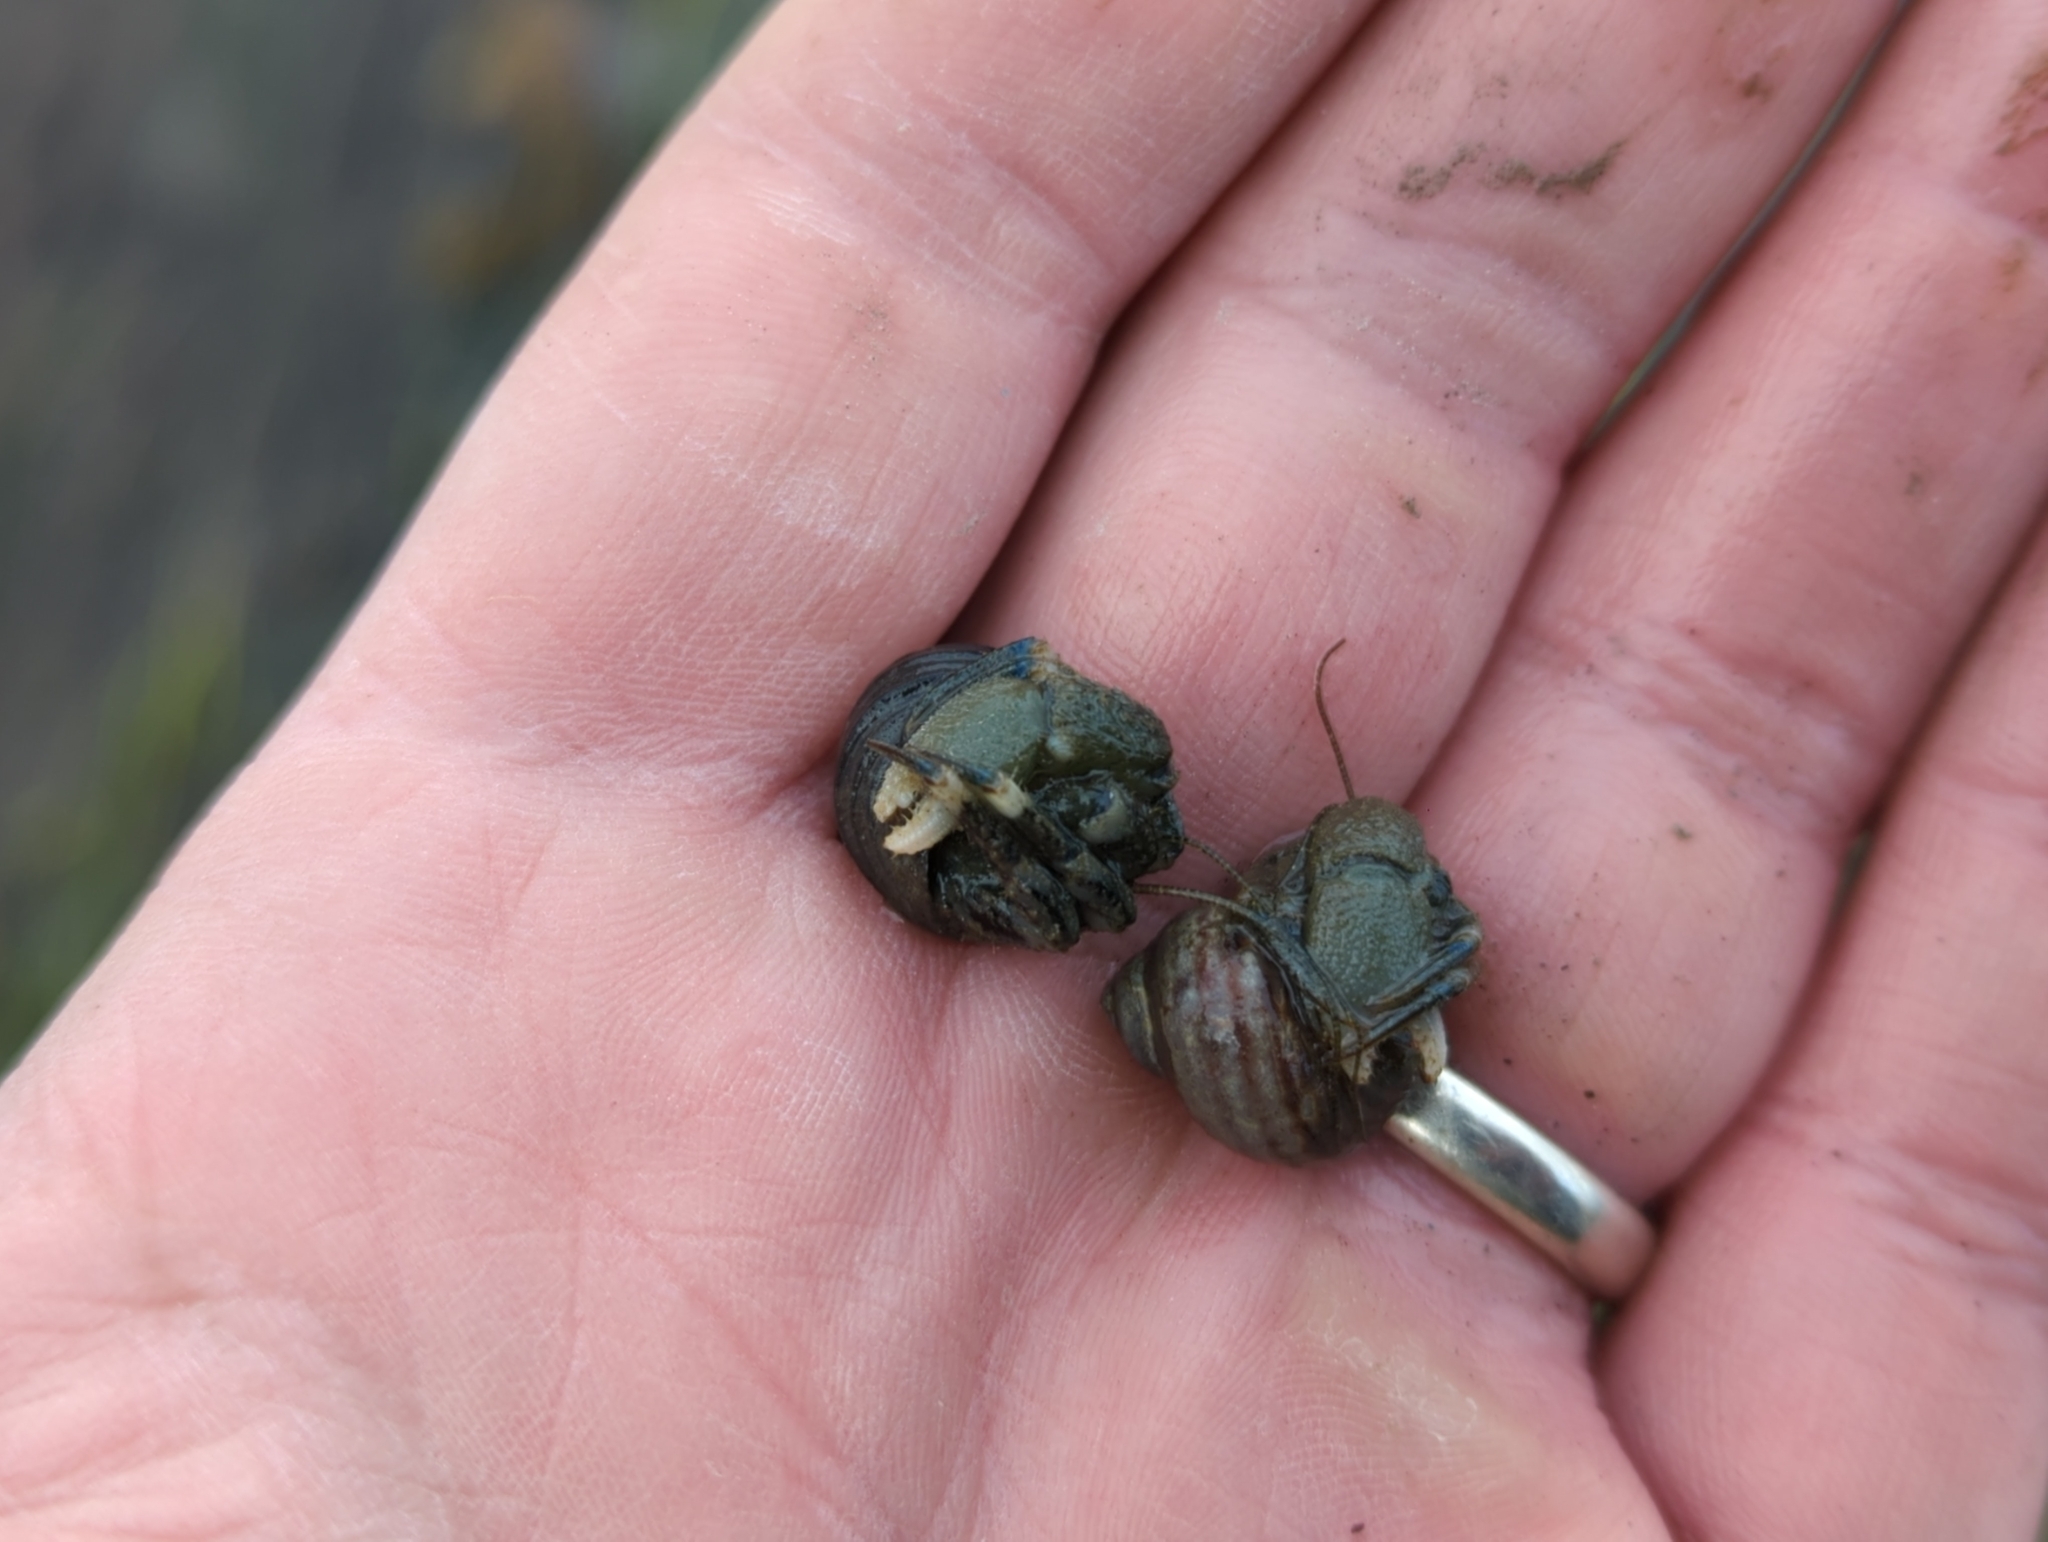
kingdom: Animalia
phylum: Arthropoda
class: Malacostraca
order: Decapoda
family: Paguridae
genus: Pagurus
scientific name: Pagurus hirsutiusculus
